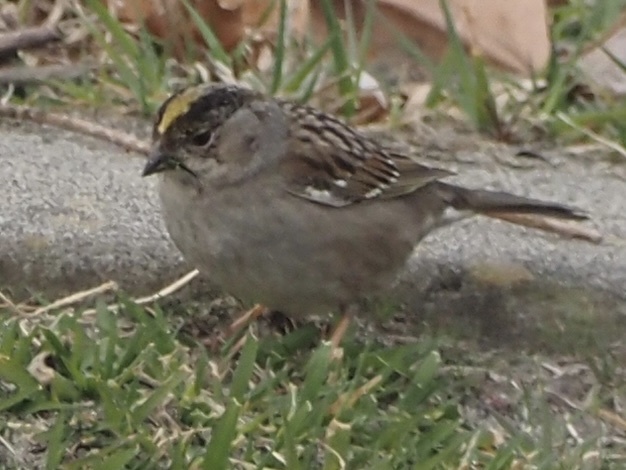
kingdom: Animalia
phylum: Chordata
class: Aves
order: Passeriformes
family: Passerellidae
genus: Zonotrichia
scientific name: Zonotrichia atricapilla
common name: Golden-crowned sparrow
